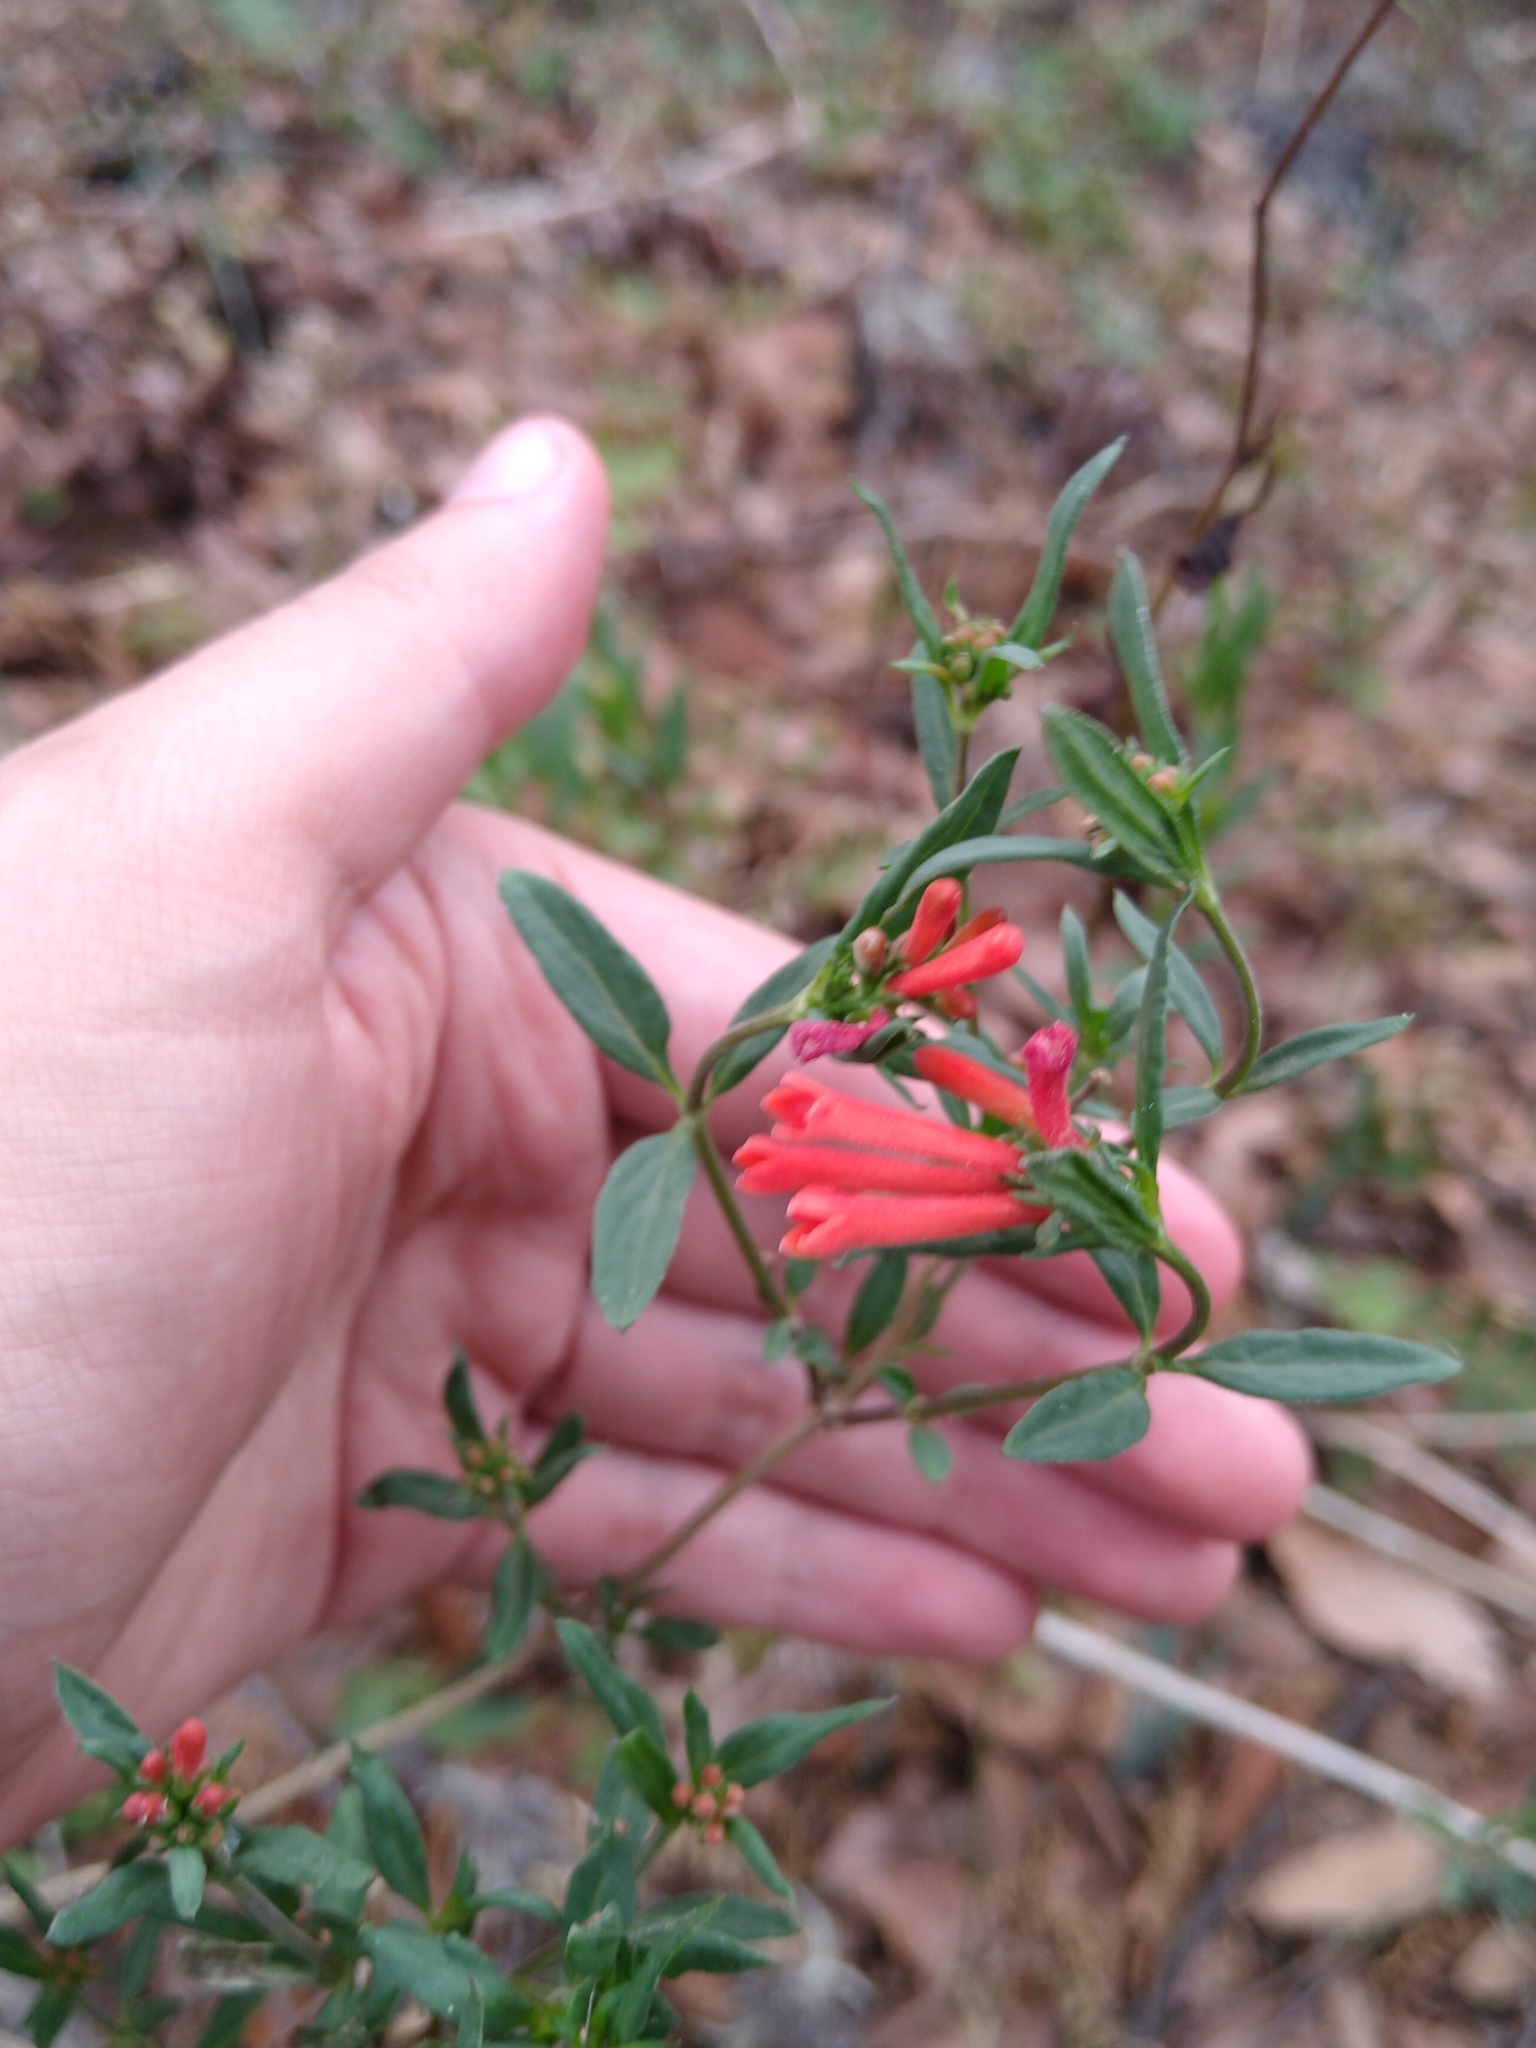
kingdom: Plantae
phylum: Tracheophyta
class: Magnoliopsida
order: Gentianales
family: Rubiaceae
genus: Bouvardia
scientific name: Bouvardia ternifolia
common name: Scarlet bouvardia
